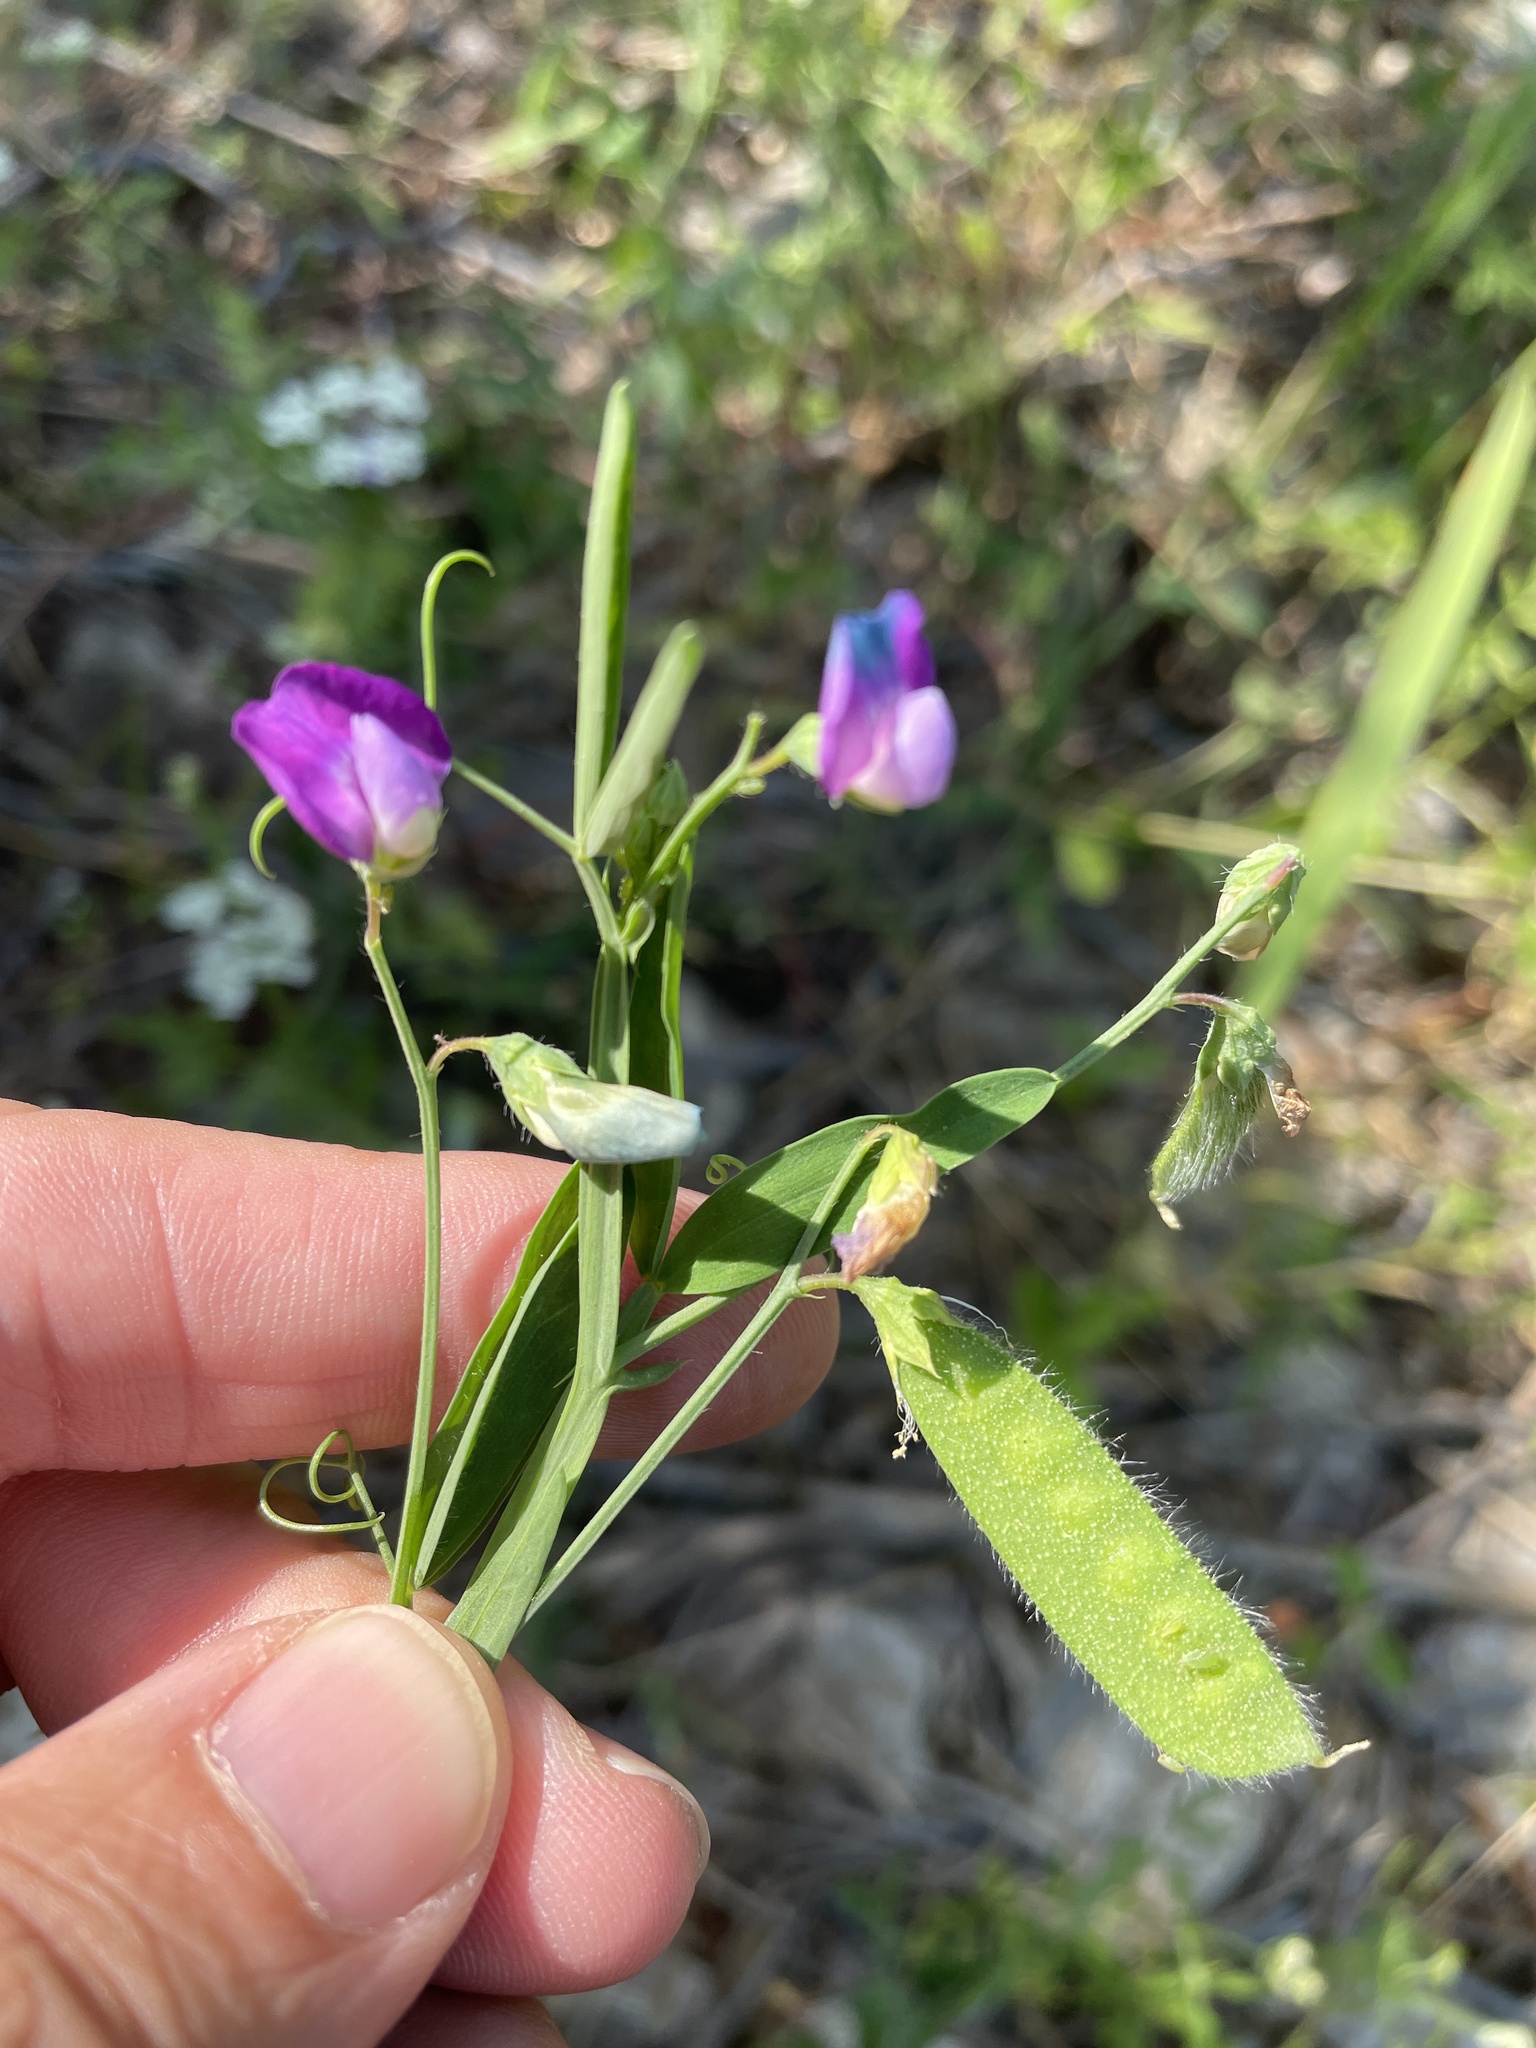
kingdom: Plantae
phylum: Tracheophyta
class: Magnoliopsida
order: Fabales
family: Fabaceae
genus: Lathyrus
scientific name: Lathyrus hirsutus
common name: Hairy vetchling
